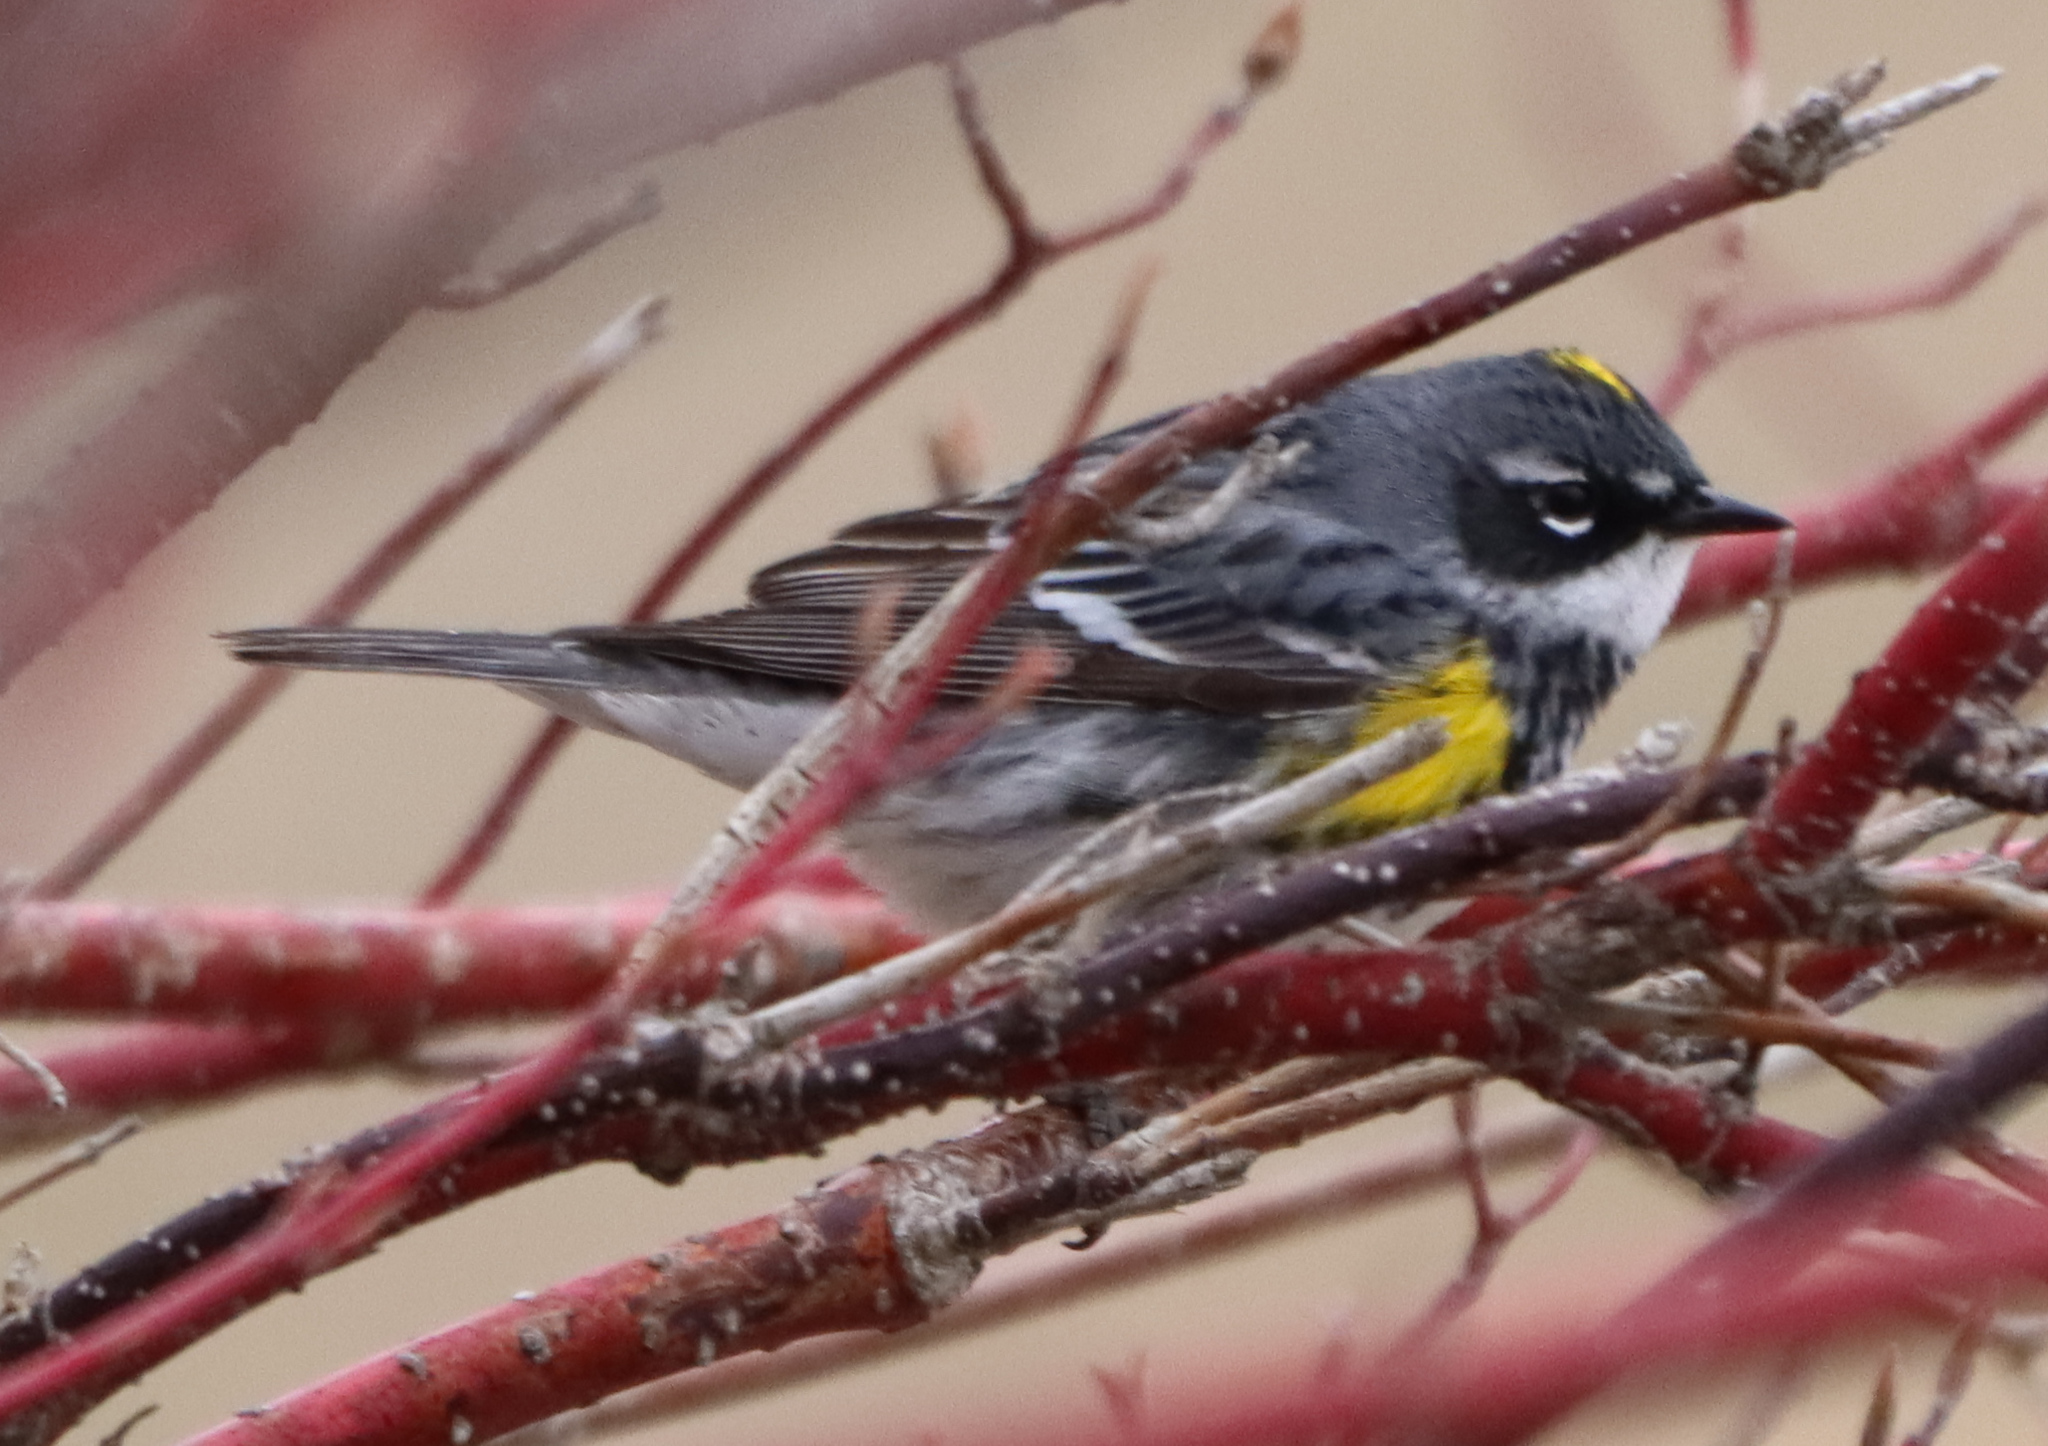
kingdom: Animalia
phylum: Chordata
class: Aves
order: Passeriformes
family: Parulidae
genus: Setophaga
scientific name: Setophaga coronata
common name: Myrtle warbler
